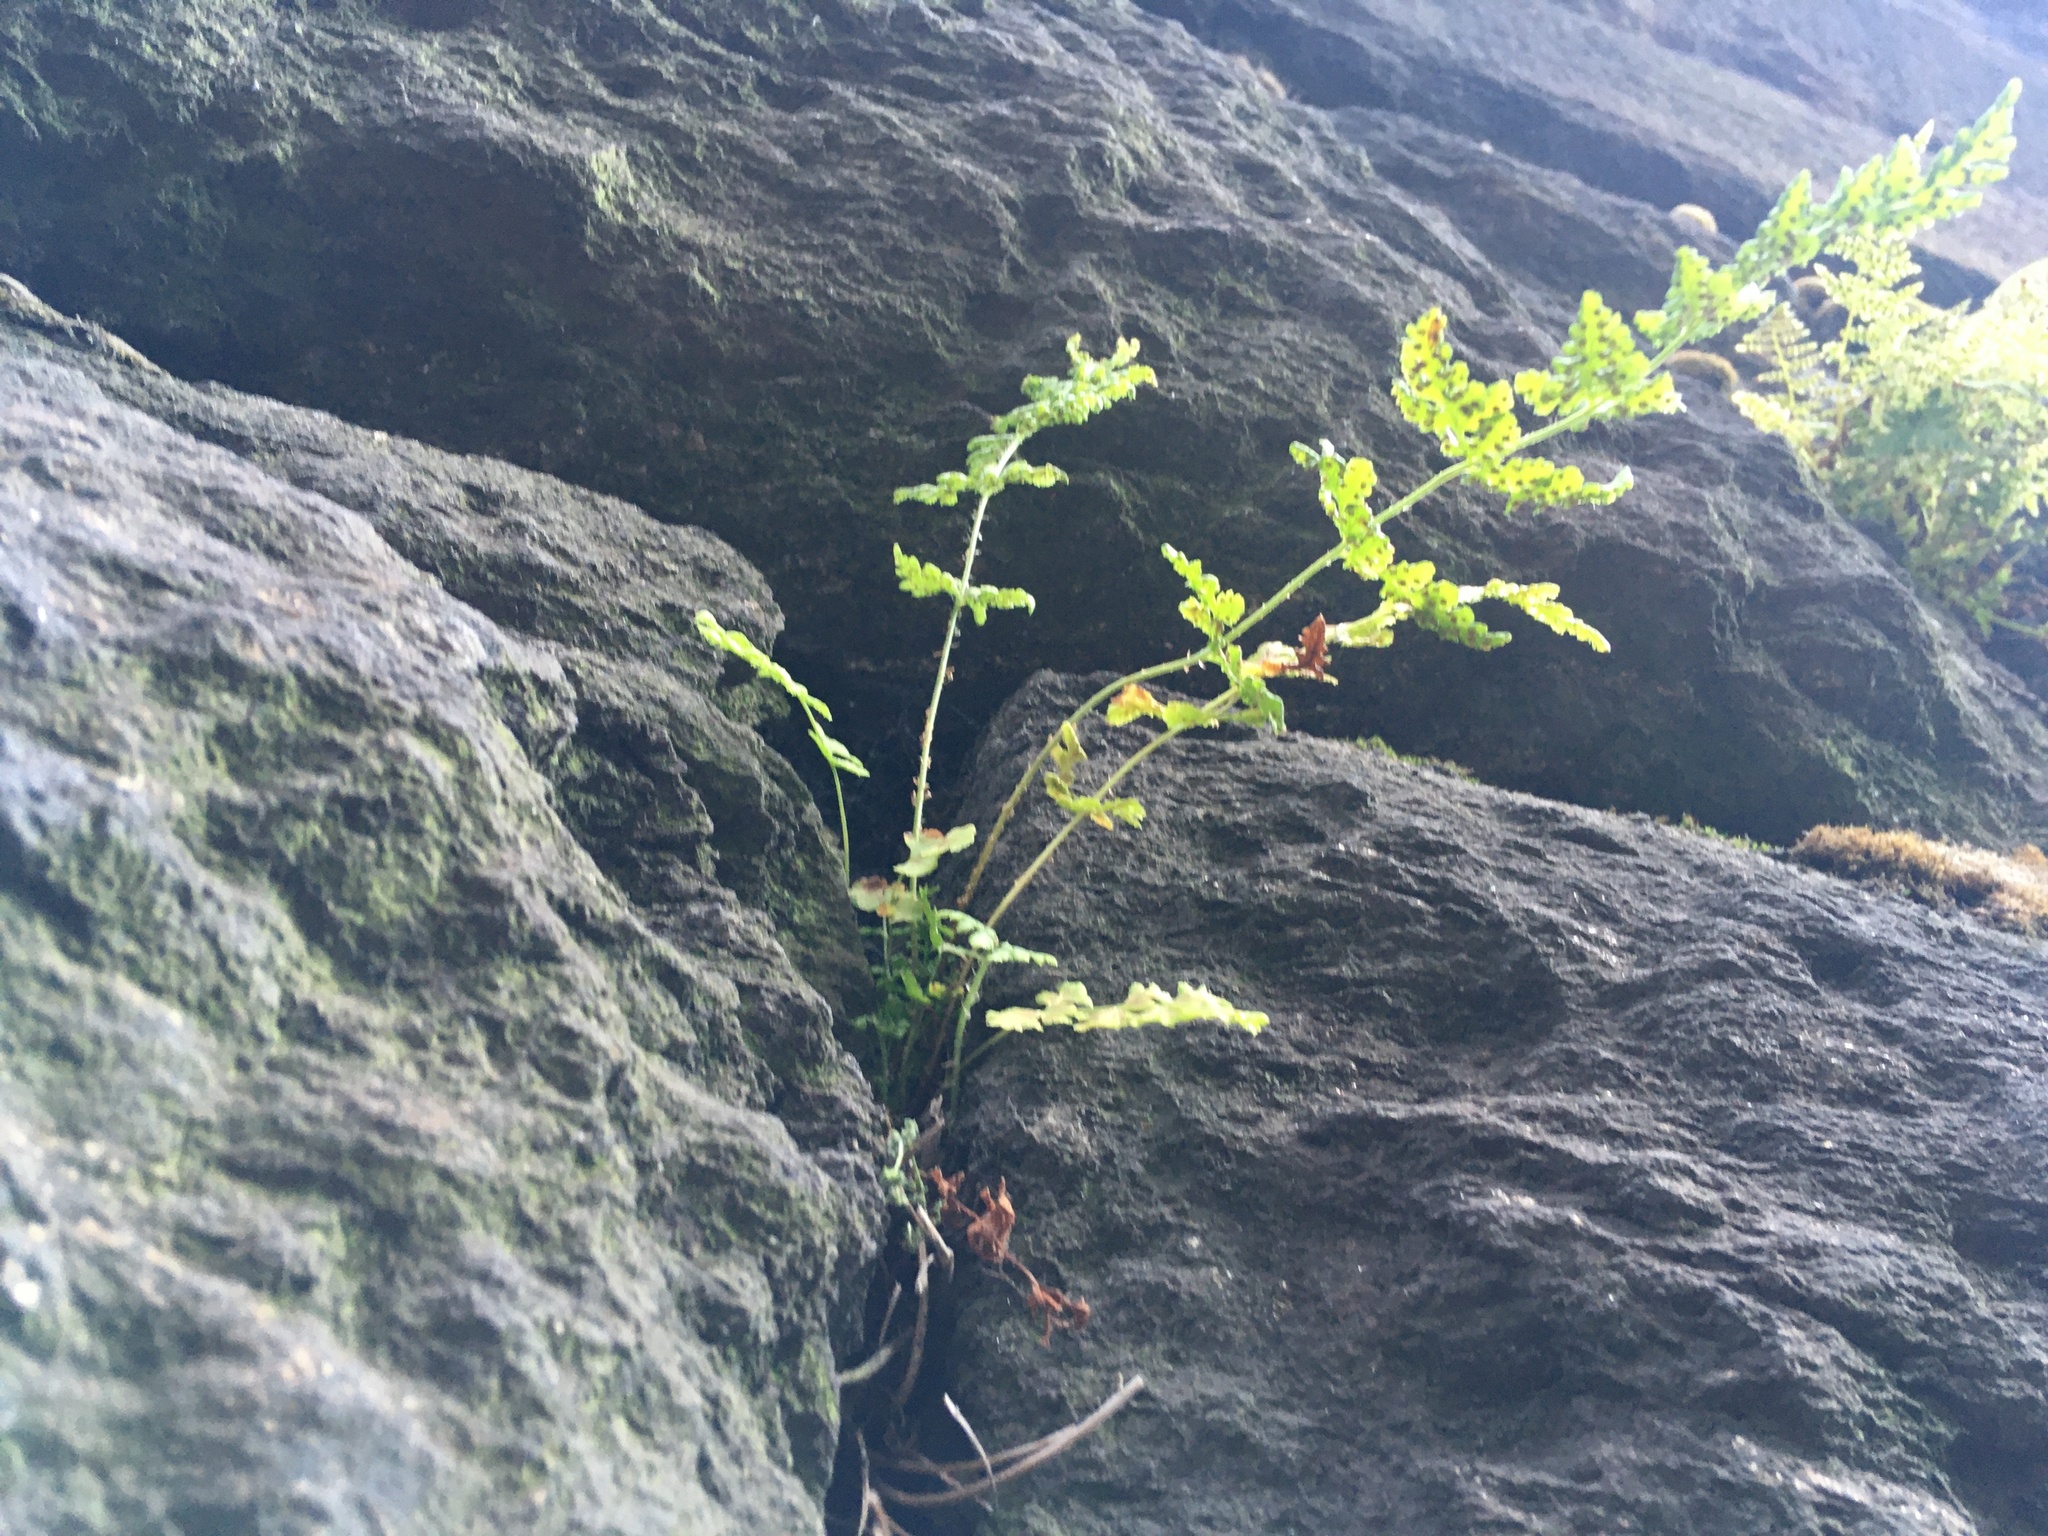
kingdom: Plantae
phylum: Tracheophyta
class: Polypodiopsida
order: Polypodiales
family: Woodsiaceae
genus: Physematium
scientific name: Physematium obtusum
